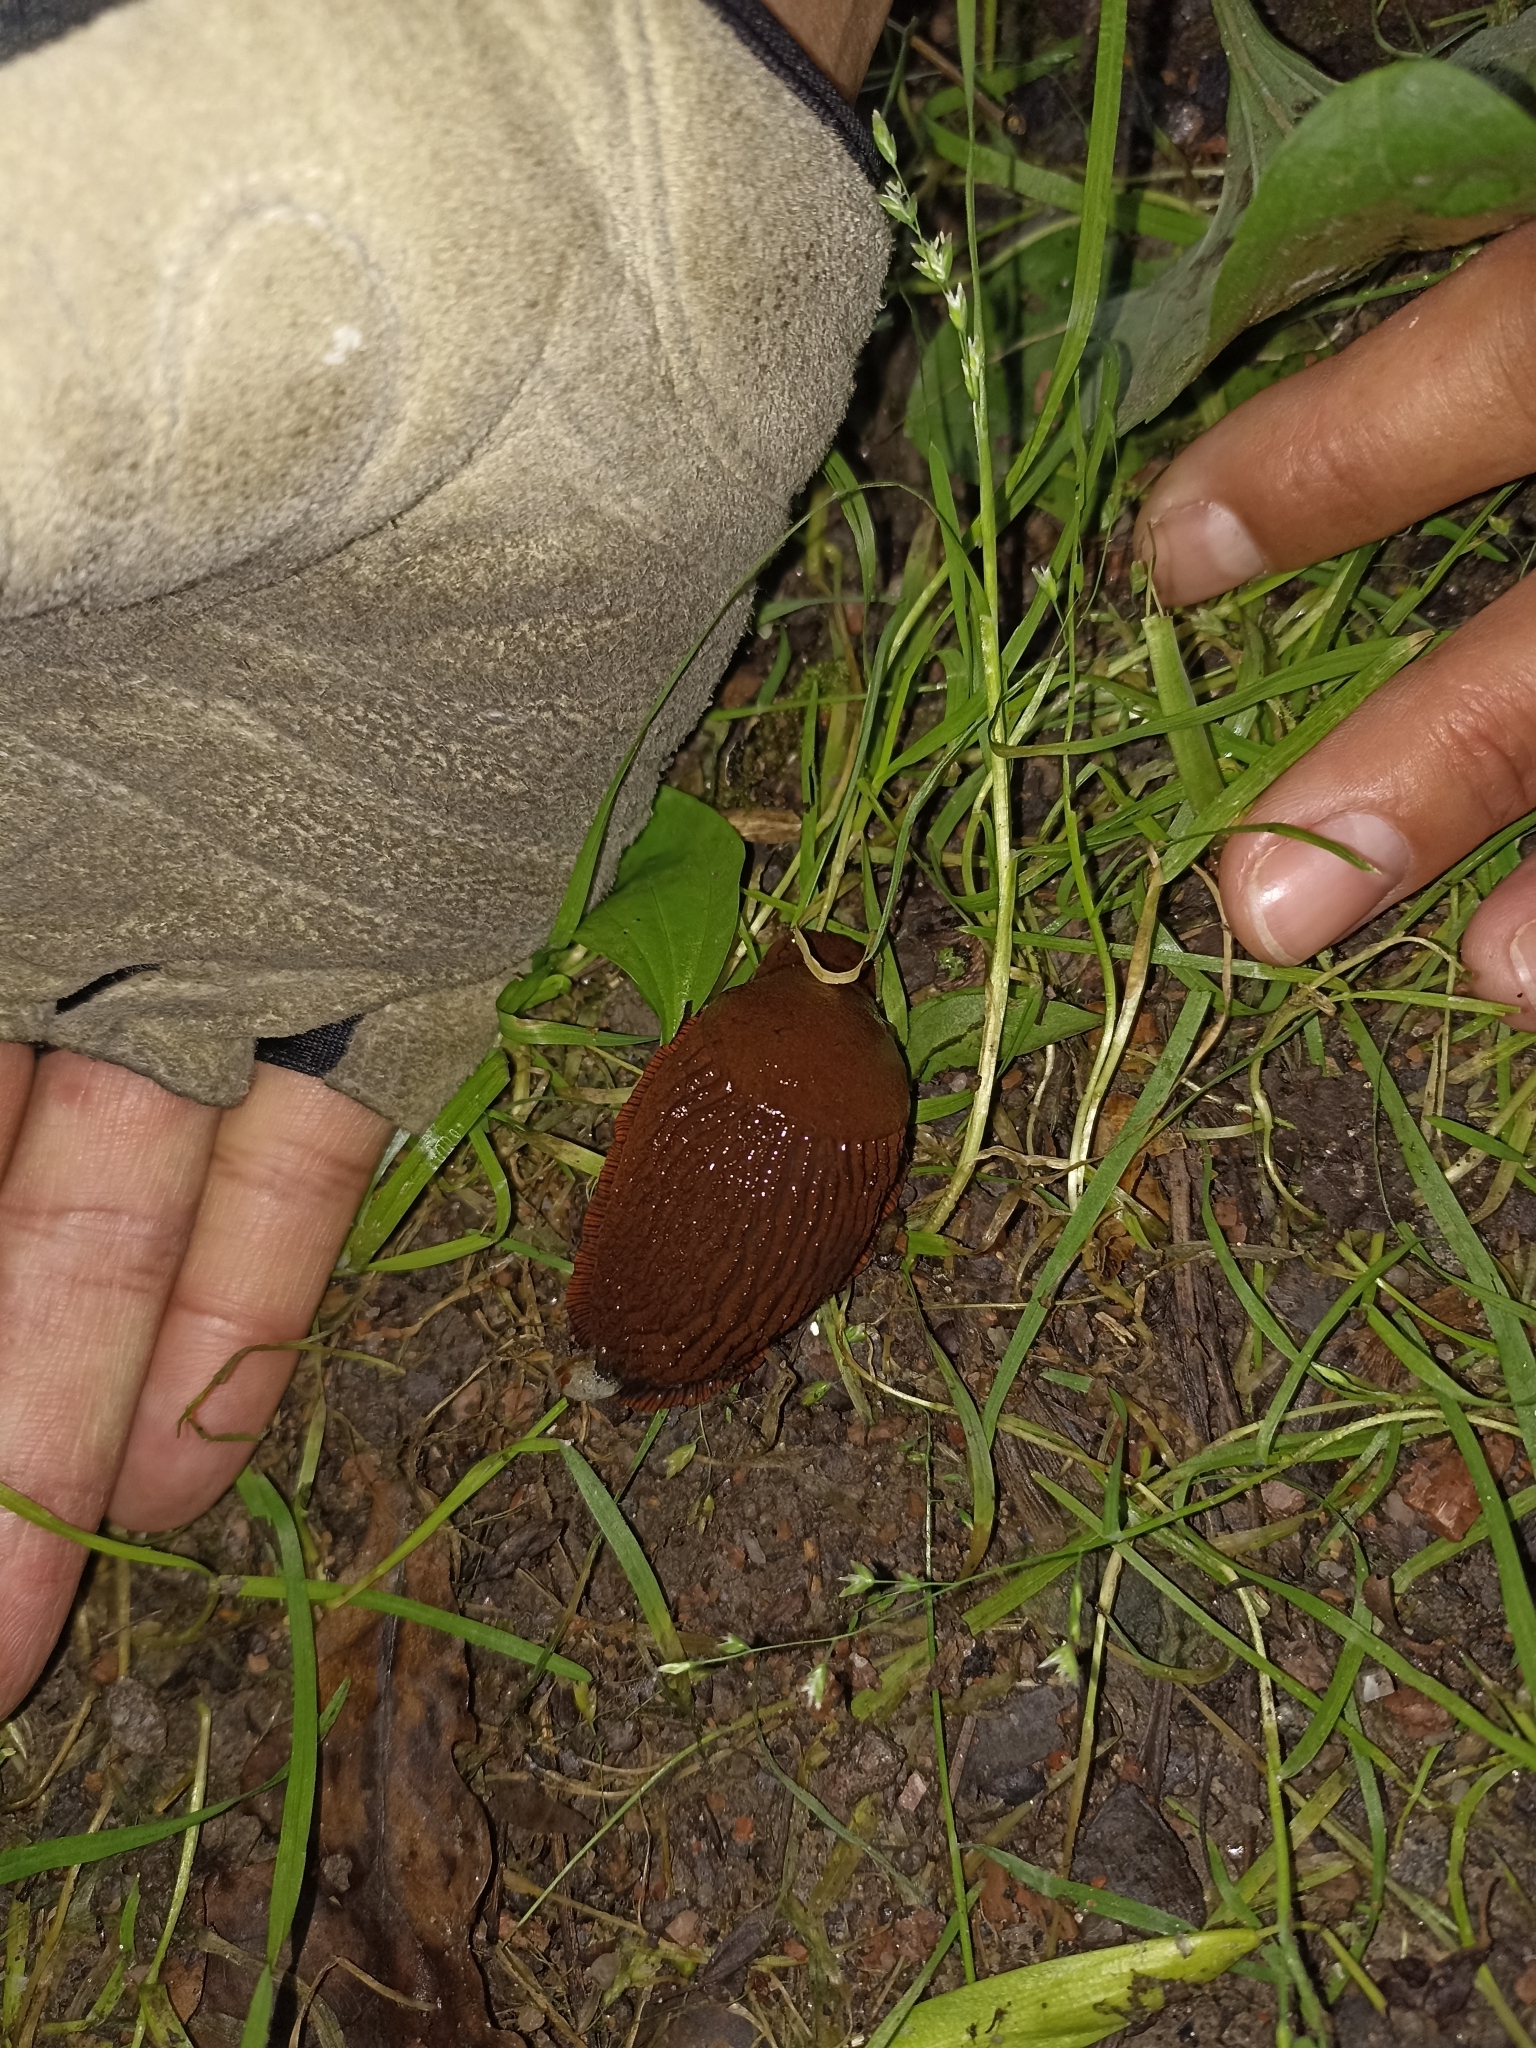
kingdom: Animalia
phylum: Mollusca
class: Gastropoda
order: Stylommatophora
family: Arionidae
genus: Arion
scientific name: Arion vulgaris
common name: Lusitanian slug
